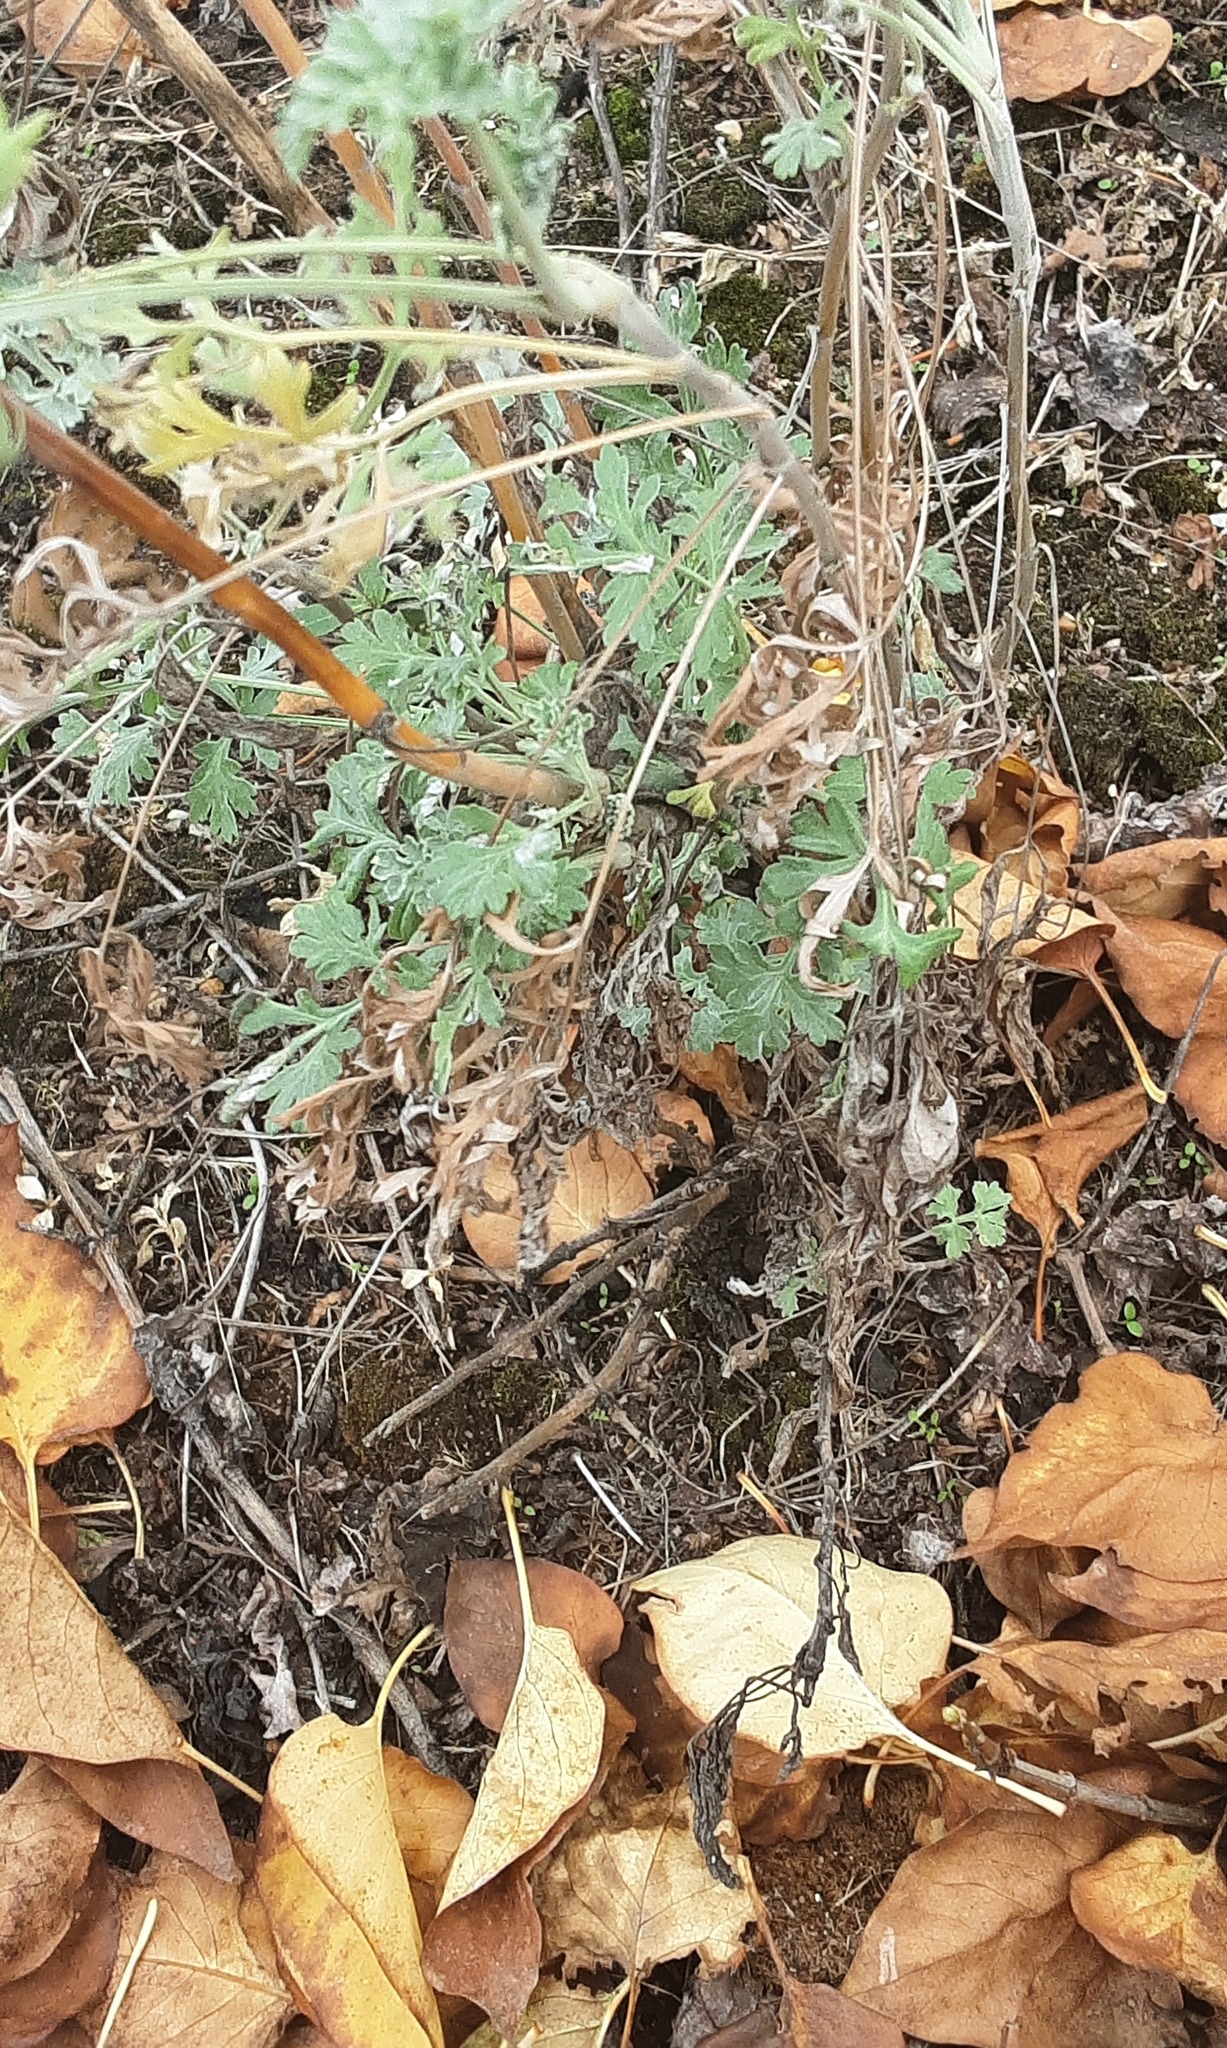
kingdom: Plantae
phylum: Tracheophyta
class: Magnoliopsida
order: Asterales
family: Asteraceae
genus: Artemisia
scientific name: Artemisia absinthium
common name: Wormwood
